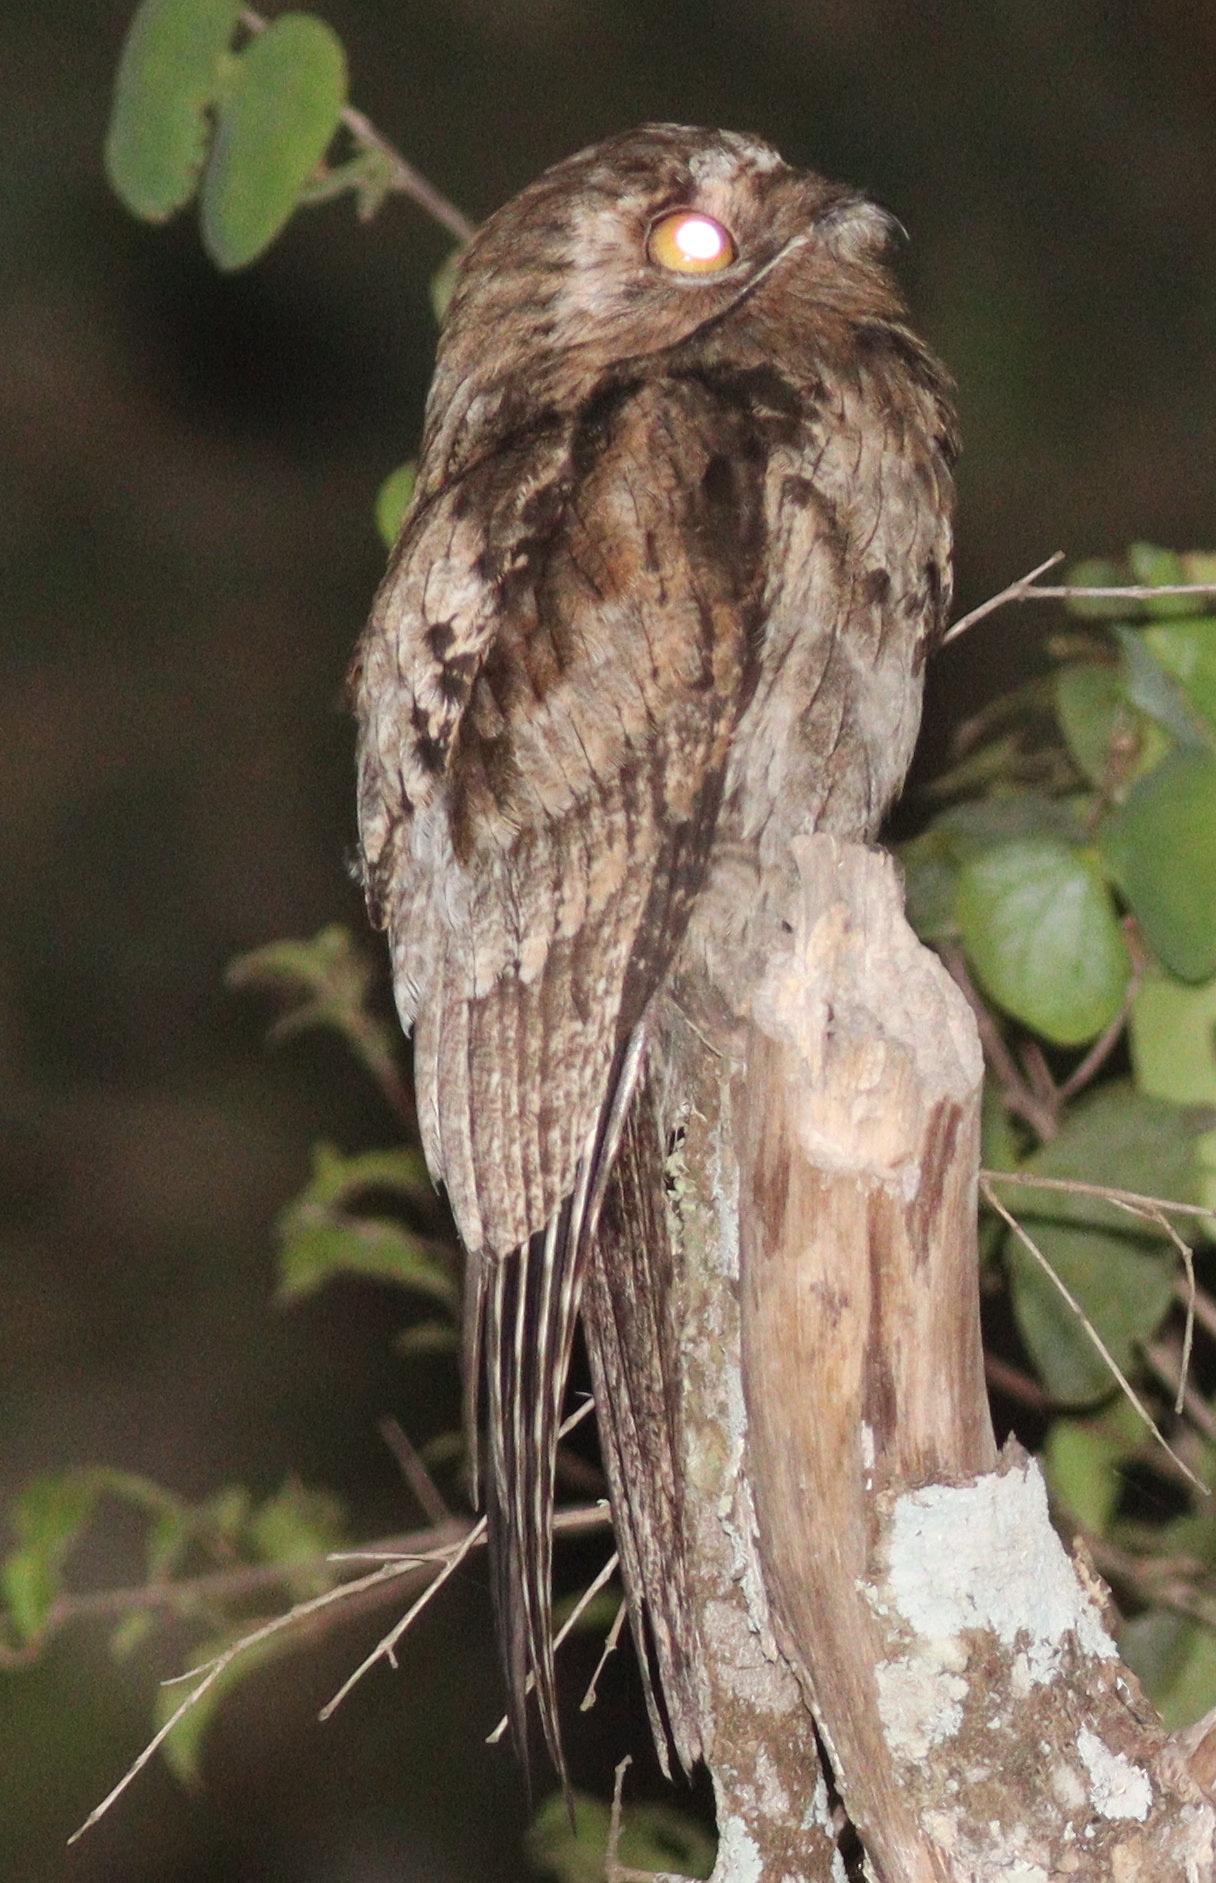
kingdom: Animalia
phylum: Chordata
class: Aves
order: Nyctibiiformes
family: Nyctibiidae
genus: Nyctibius
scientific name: Nyctibius griseus
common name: Common potoo
